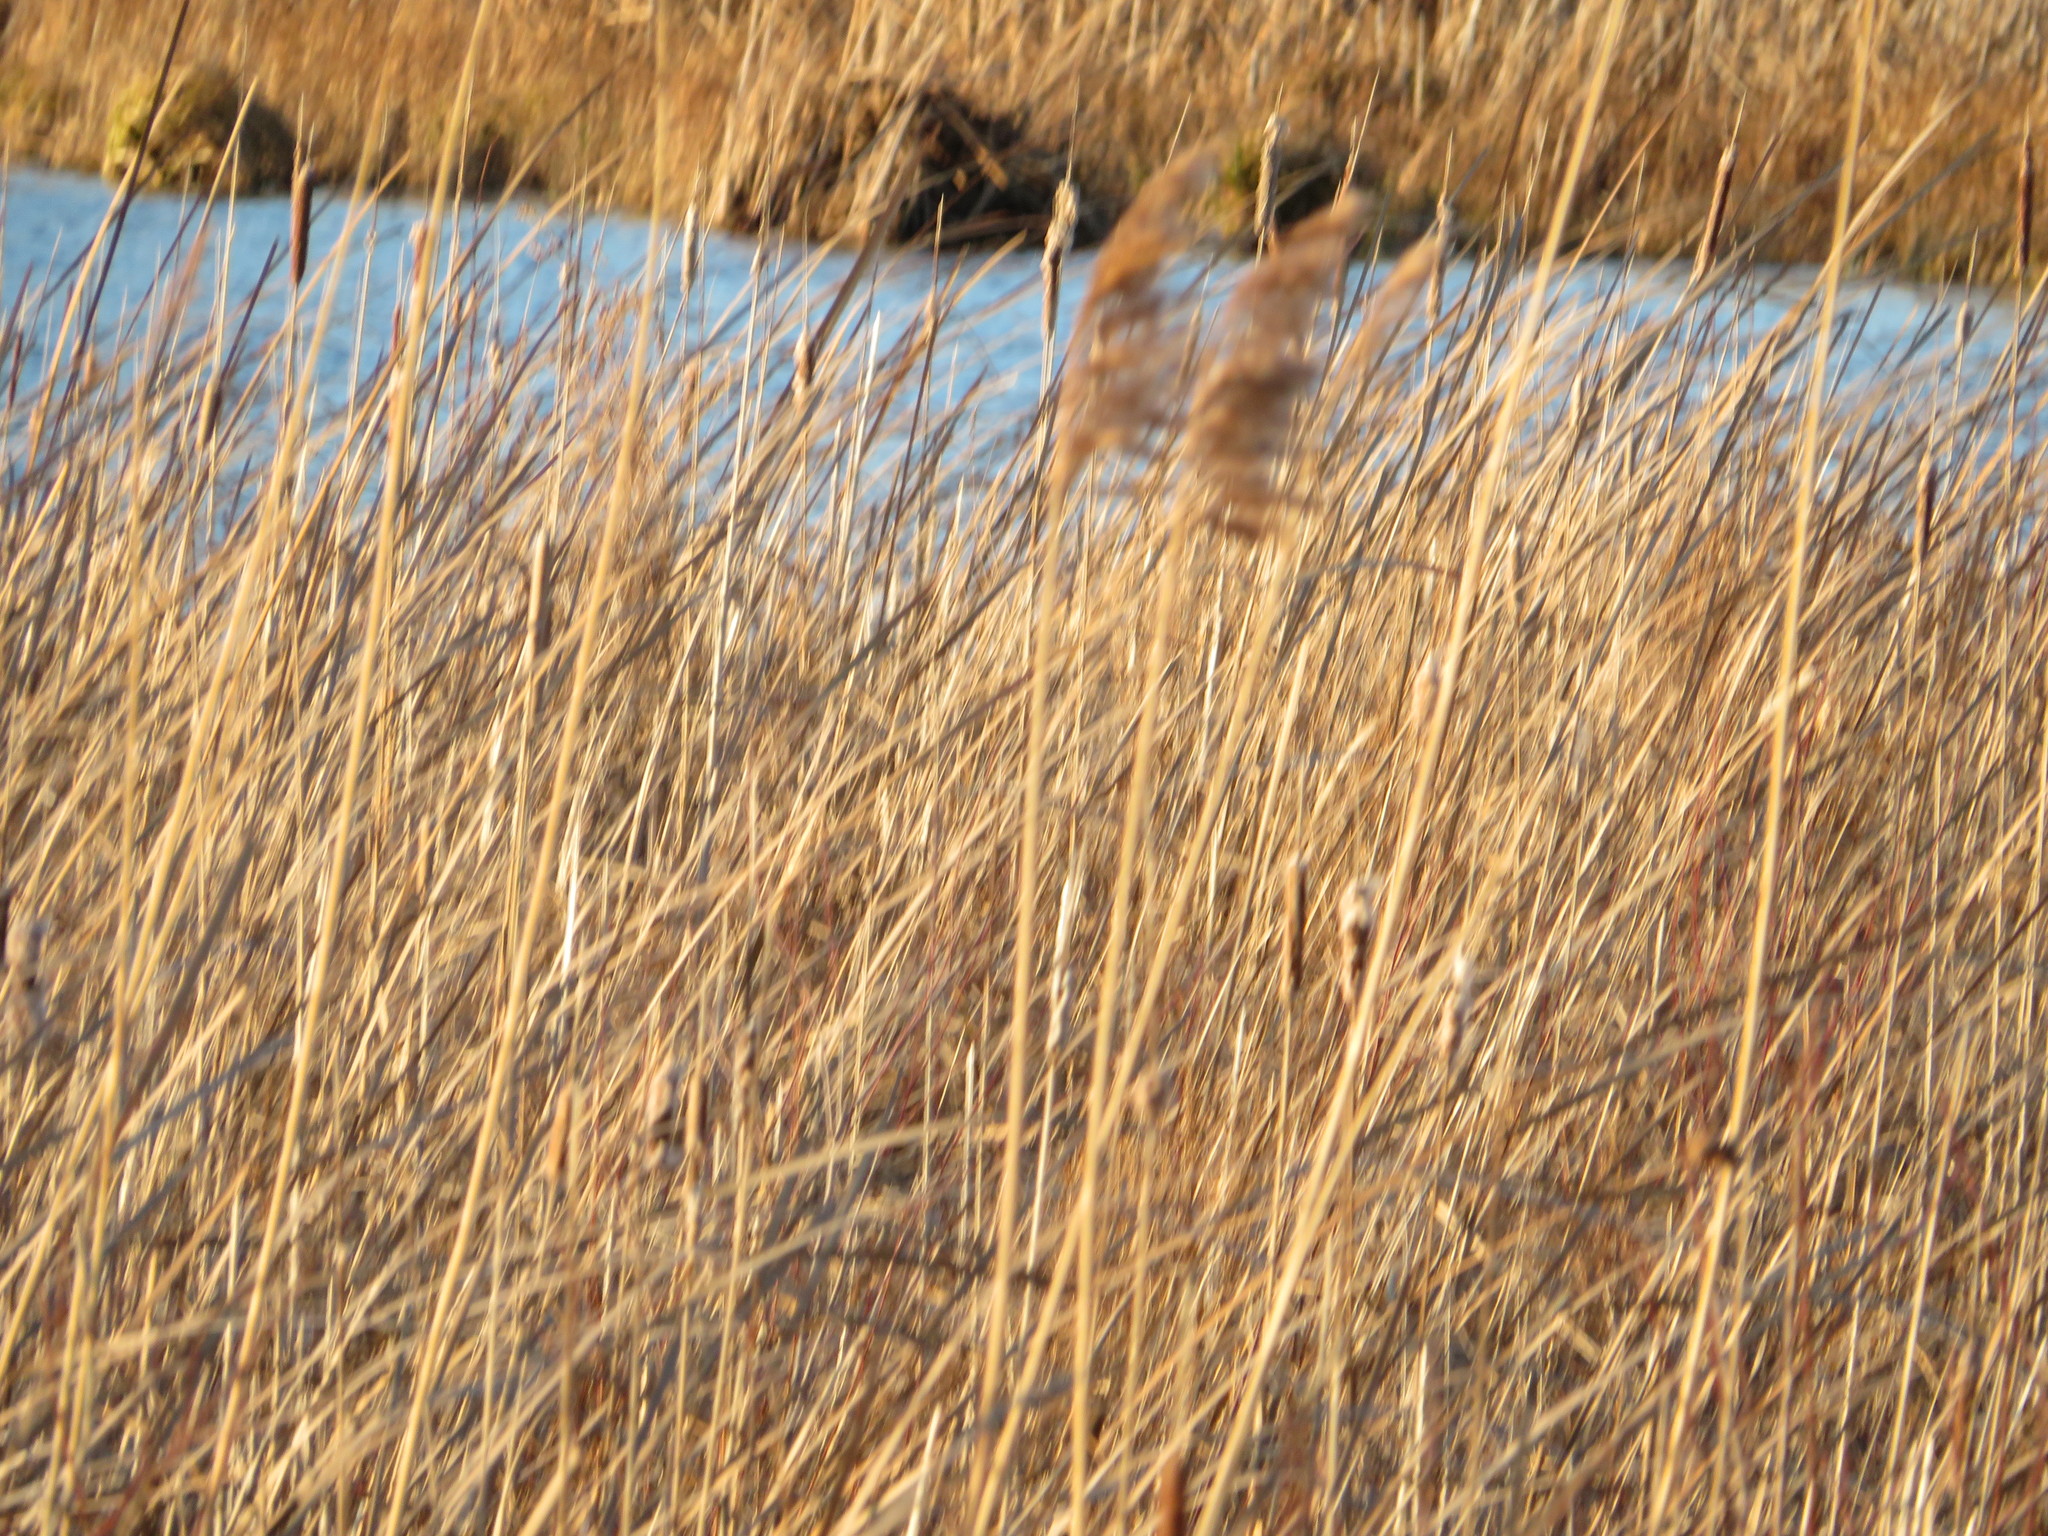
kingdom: Plantae
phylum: Tracheophyta
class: Liliopsida
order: Poales
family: Poaceae
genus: Phragmites
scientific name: Phragmites australis
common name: Common reed
